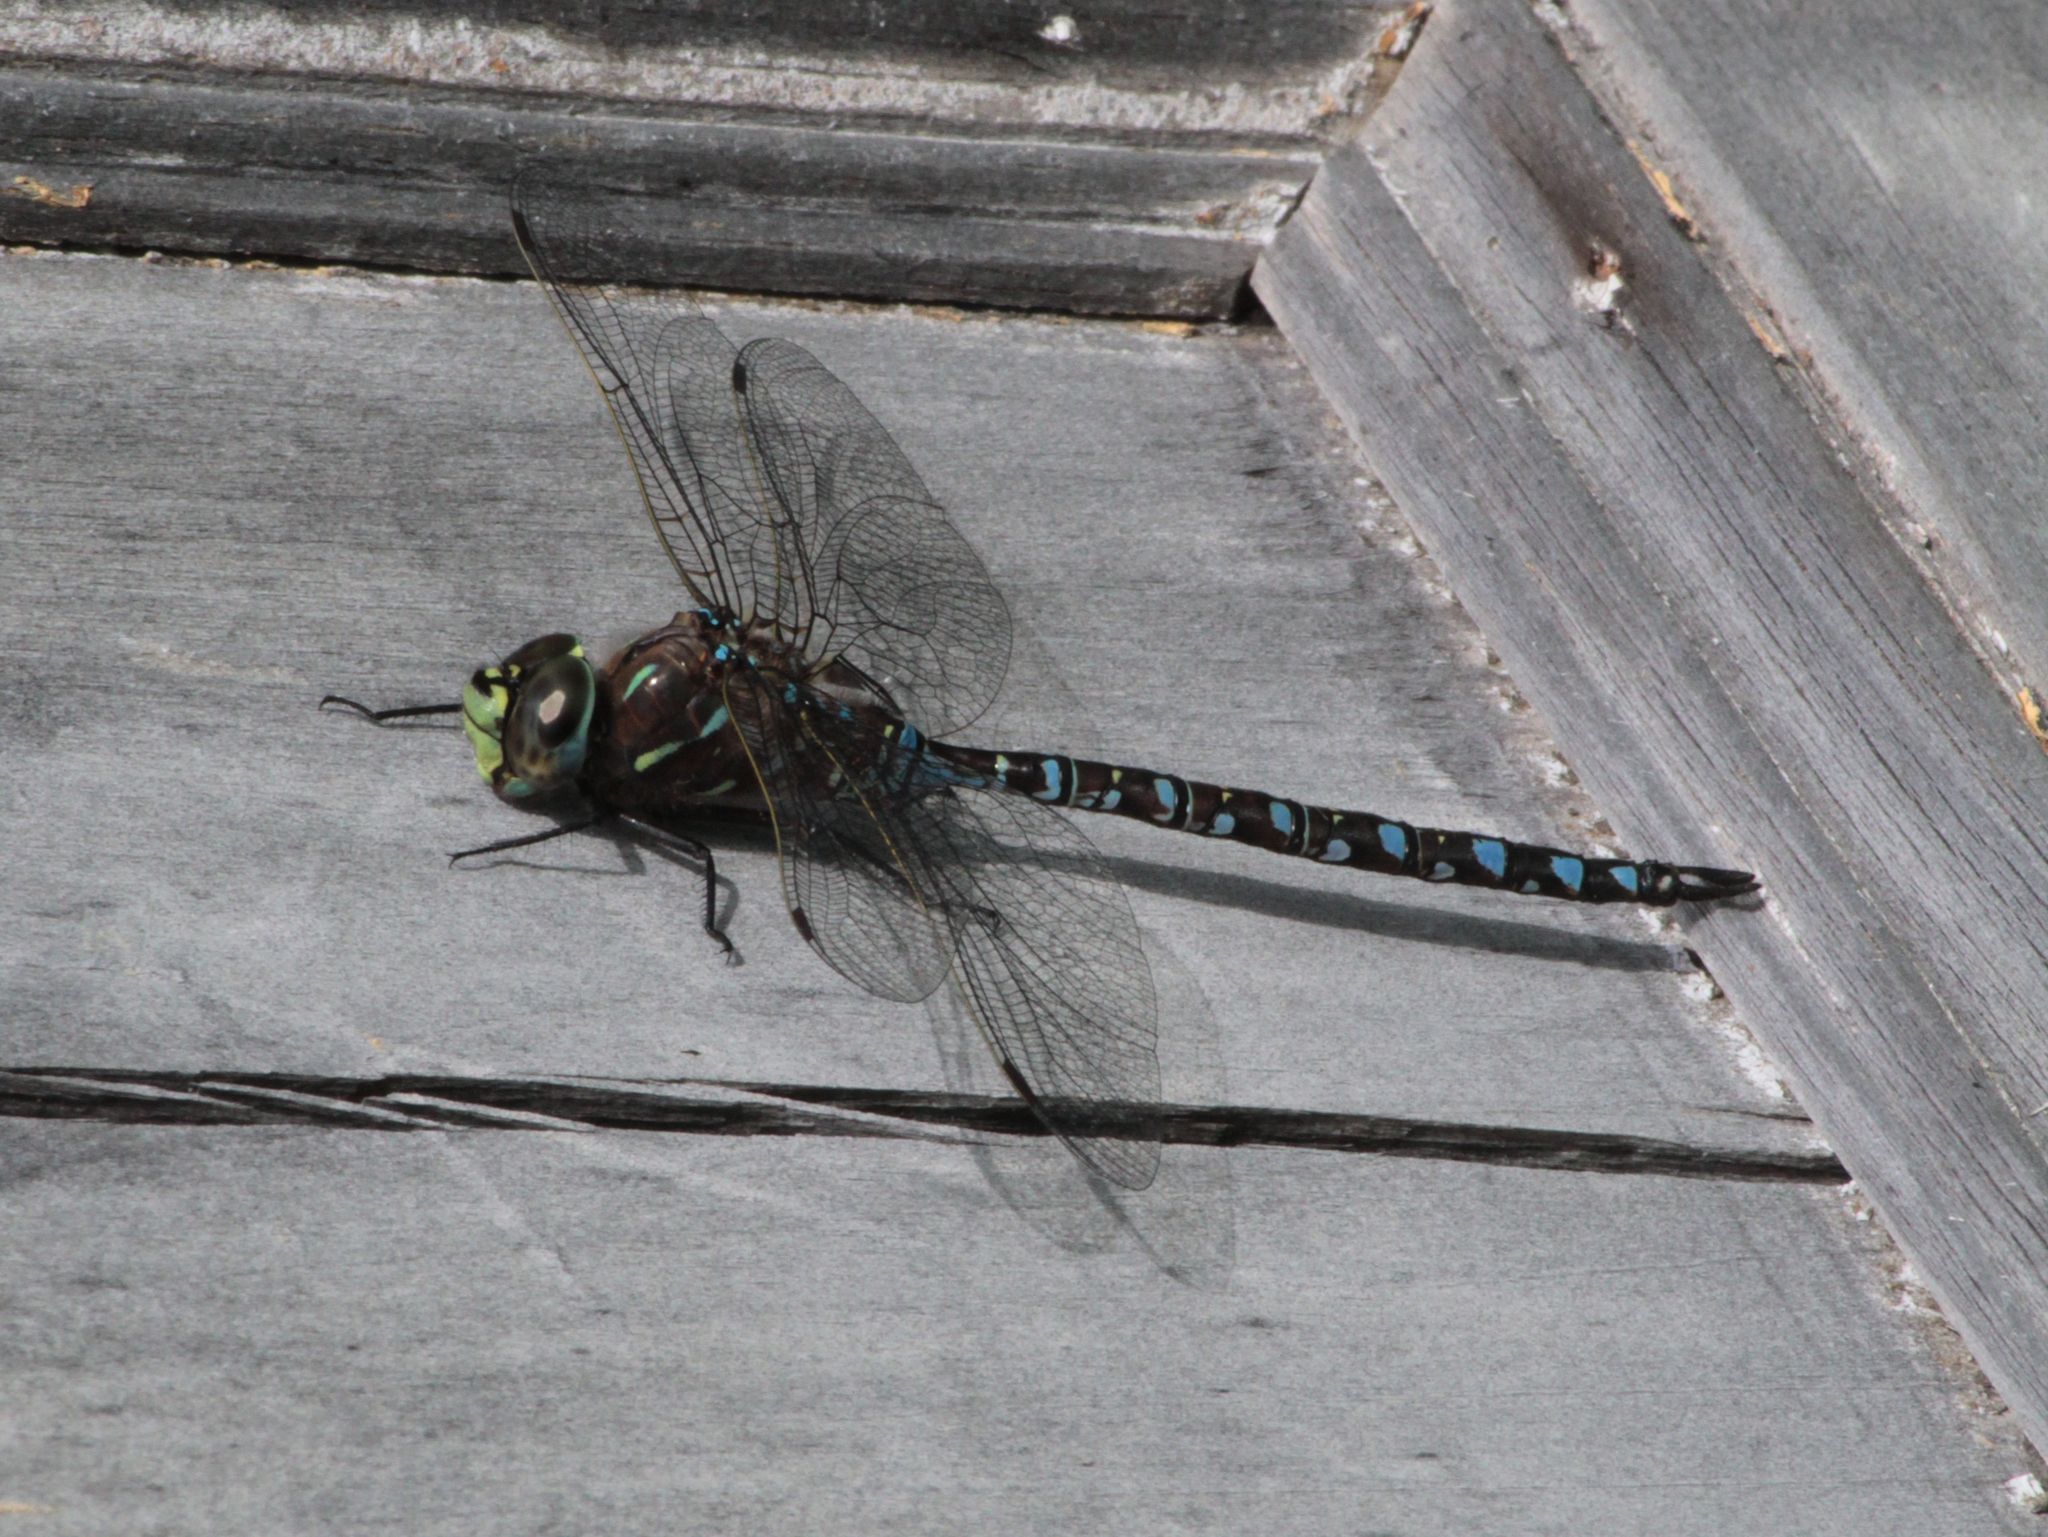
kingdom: Animalia
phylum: Arthropoda
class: Insecta
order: Odonata
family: Aeshnidae
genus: Aeshna
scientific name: Aeshna interrupta
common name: Variable darner
